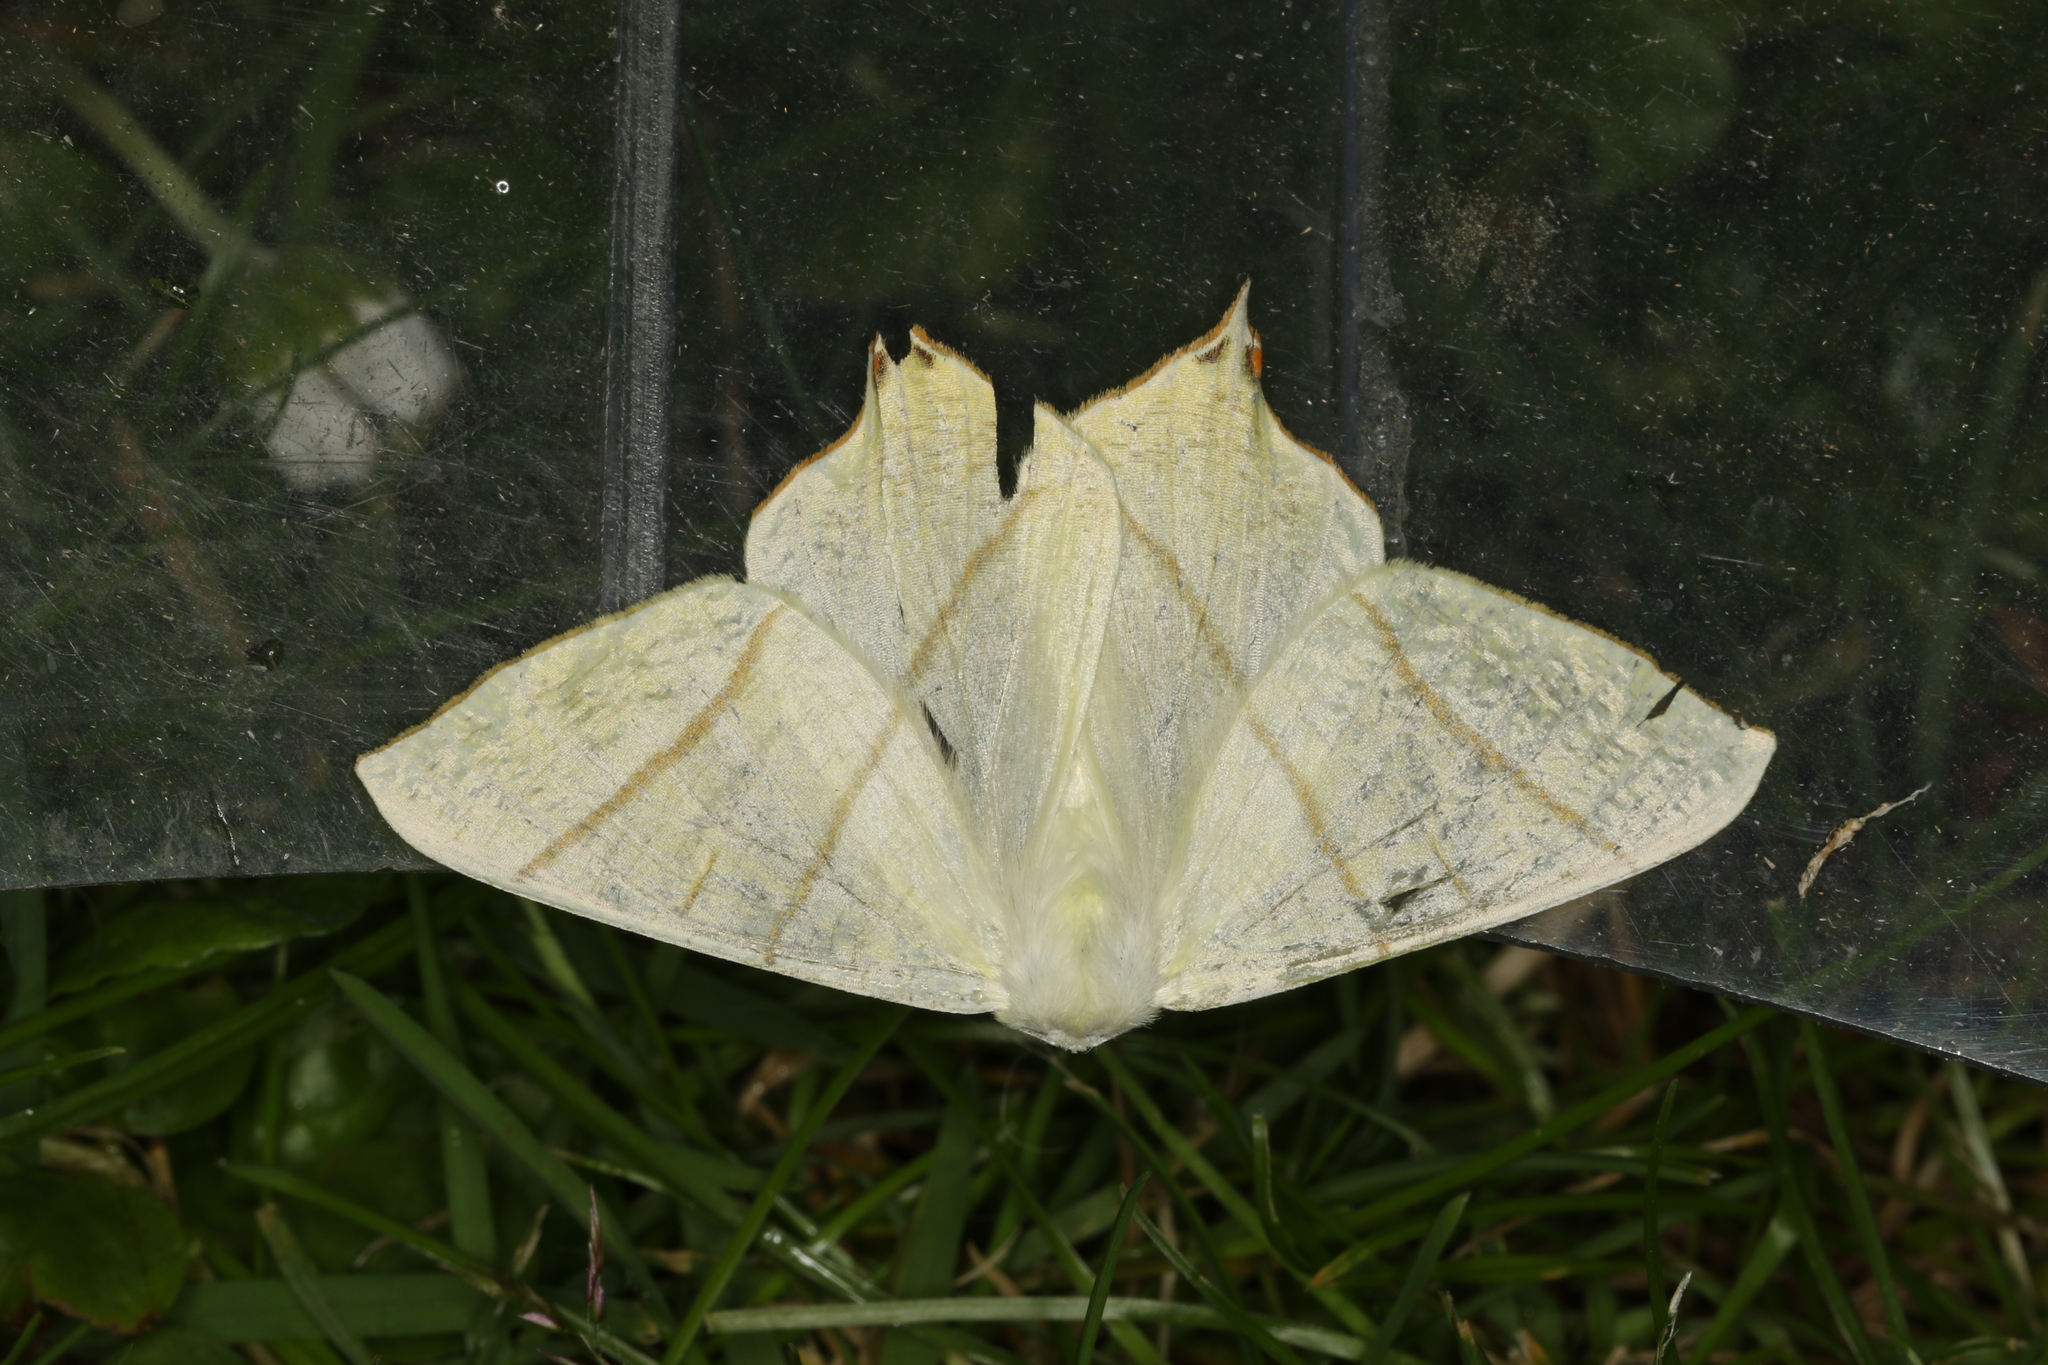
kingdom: Animalia
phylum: Arthropoda
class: Insecta
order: Lepidoptera
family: Geometridae
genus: Ourapteryx
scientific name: Ourapteryx sambucaria
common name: Swallow-tailed moth
